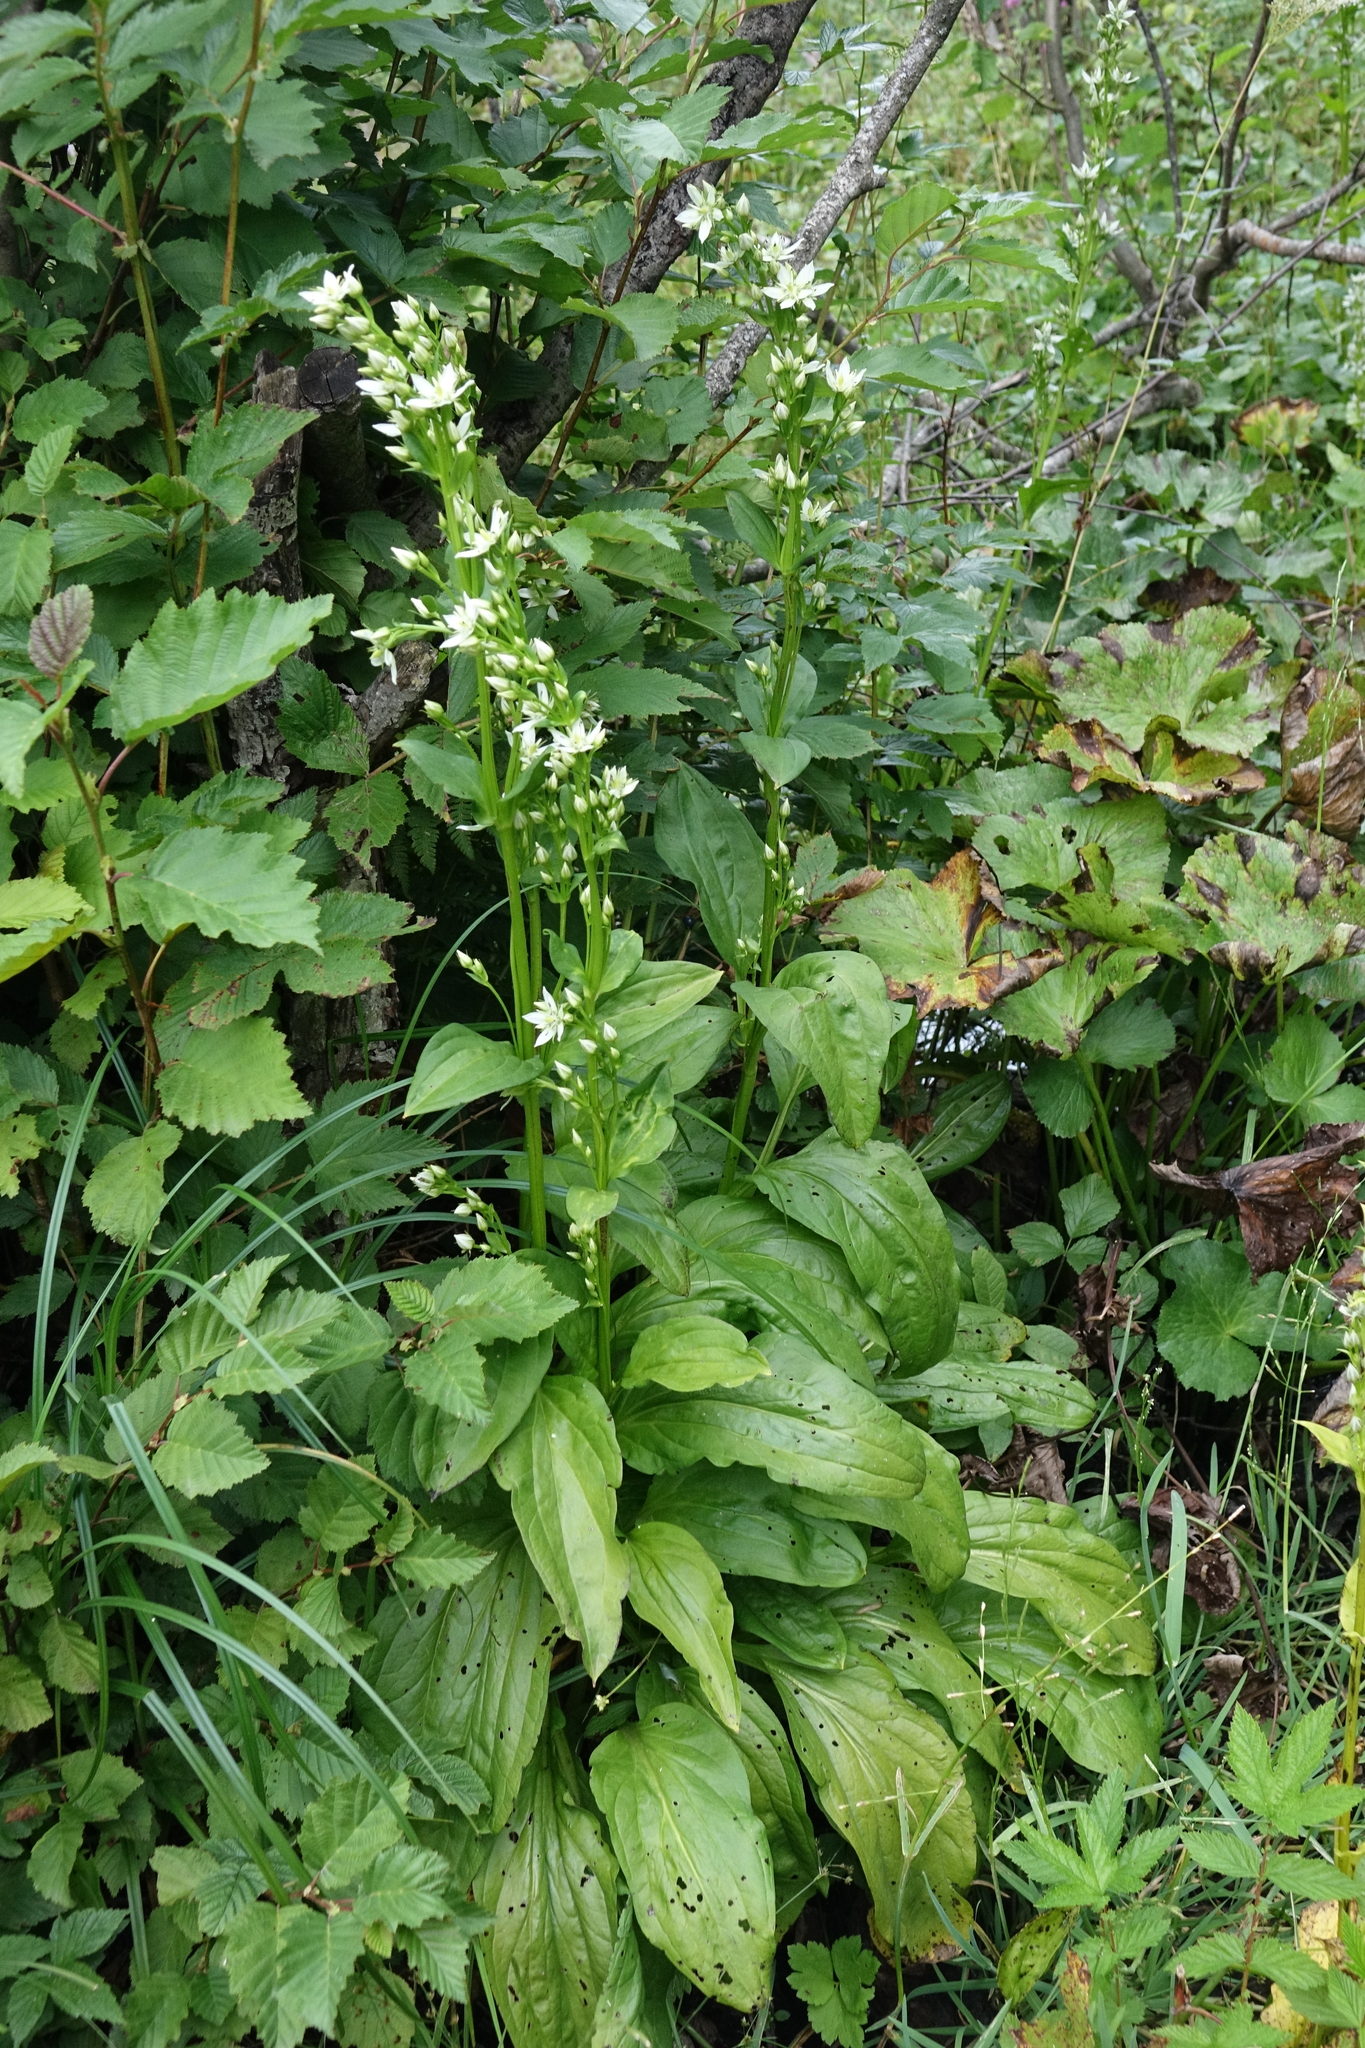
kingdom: Plantae
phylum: Tracheophyta
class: Magnoliopsida
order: Gentianales
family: Gentianaceae
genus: Swertia
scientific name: Swertia iberica
